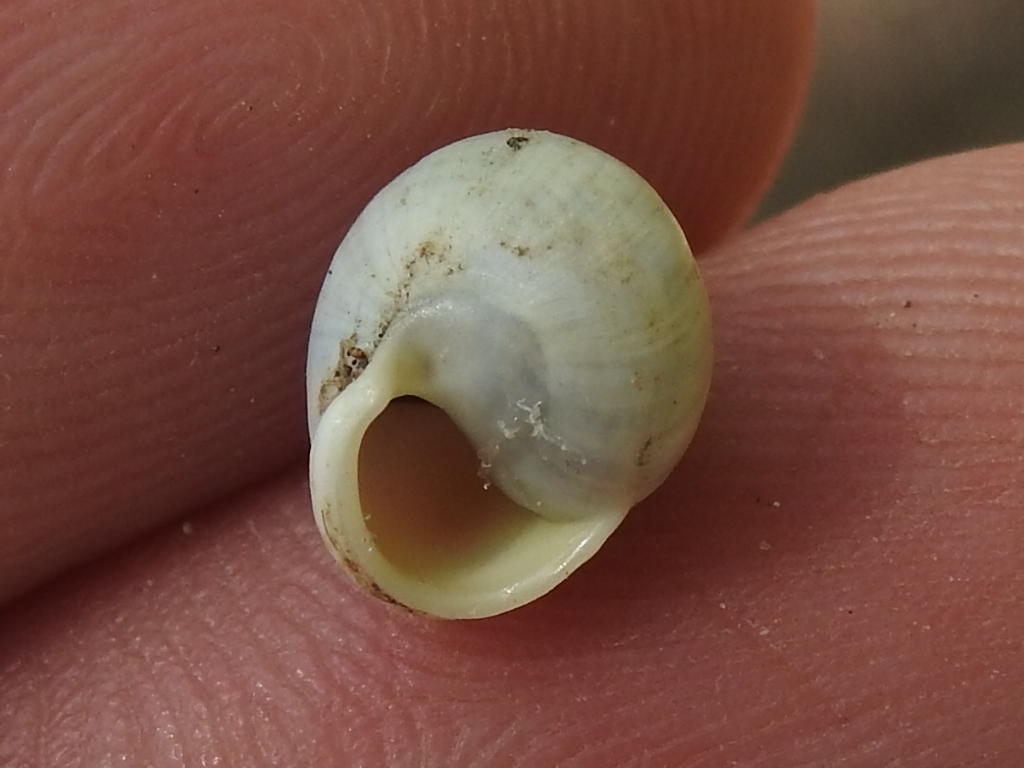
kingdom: Animalia
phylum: Mollusca
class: Gastropoda
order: Cycloneritida
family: Helicinidae
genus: Helicina
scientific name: Helicina orbiculata
